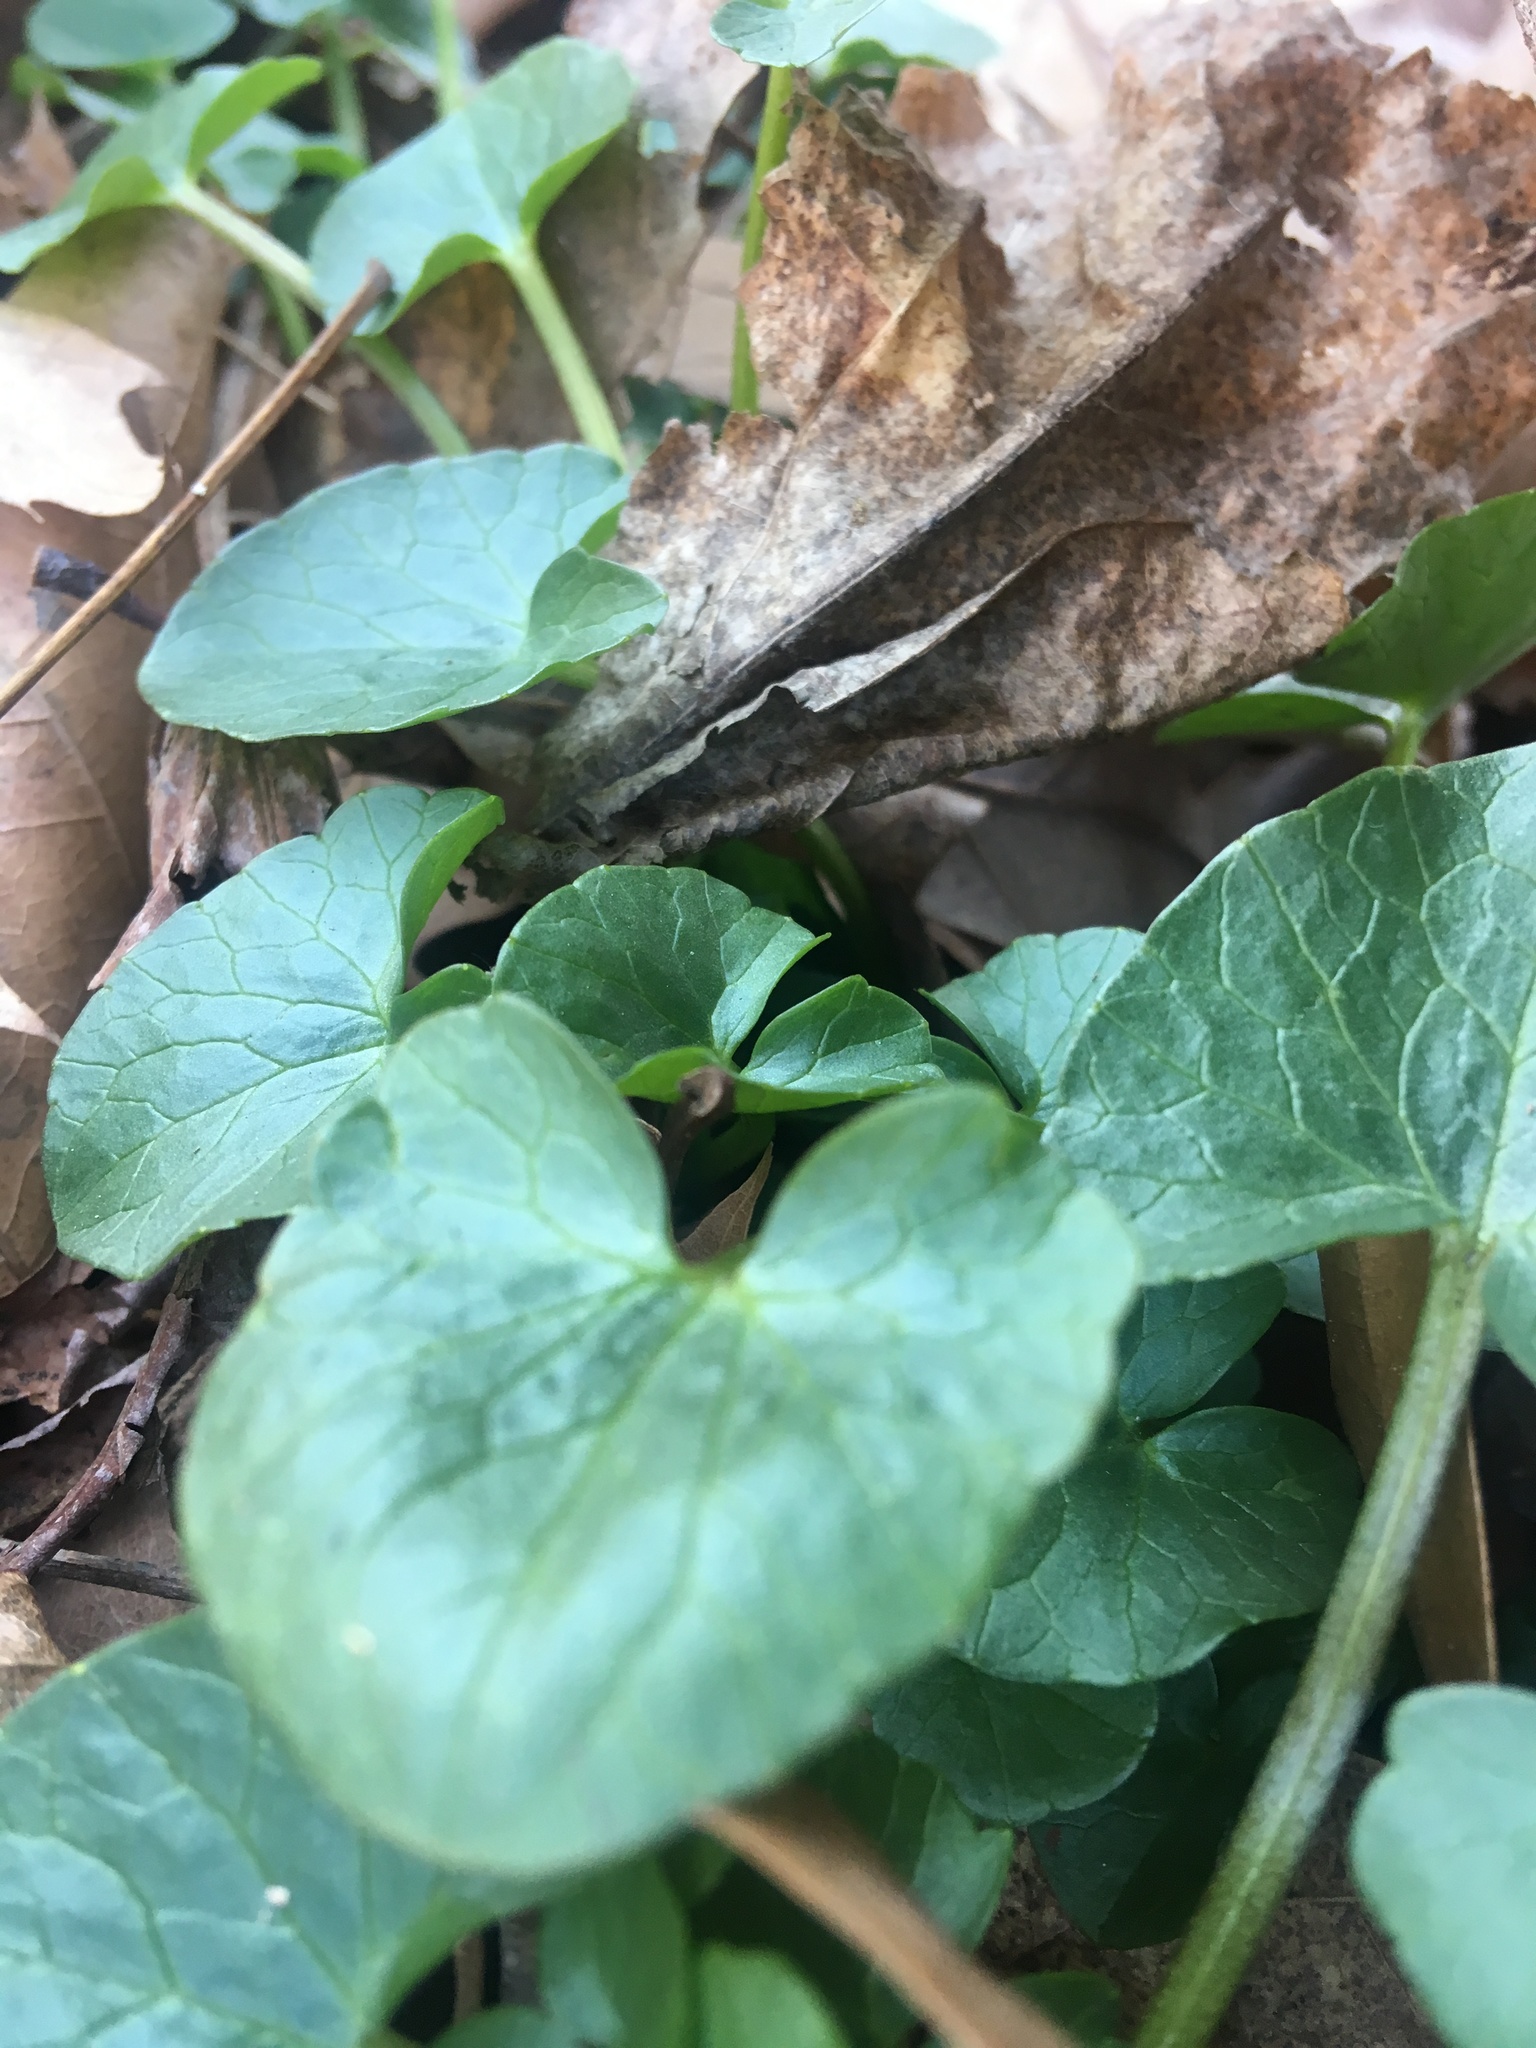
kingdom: Plantae
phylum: Tracheophyta
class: Magnoliopsida
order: Ranunculales
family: Ranunculaceae
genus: Ficaria
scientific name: Ficaria verna
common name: Lesser celandine
